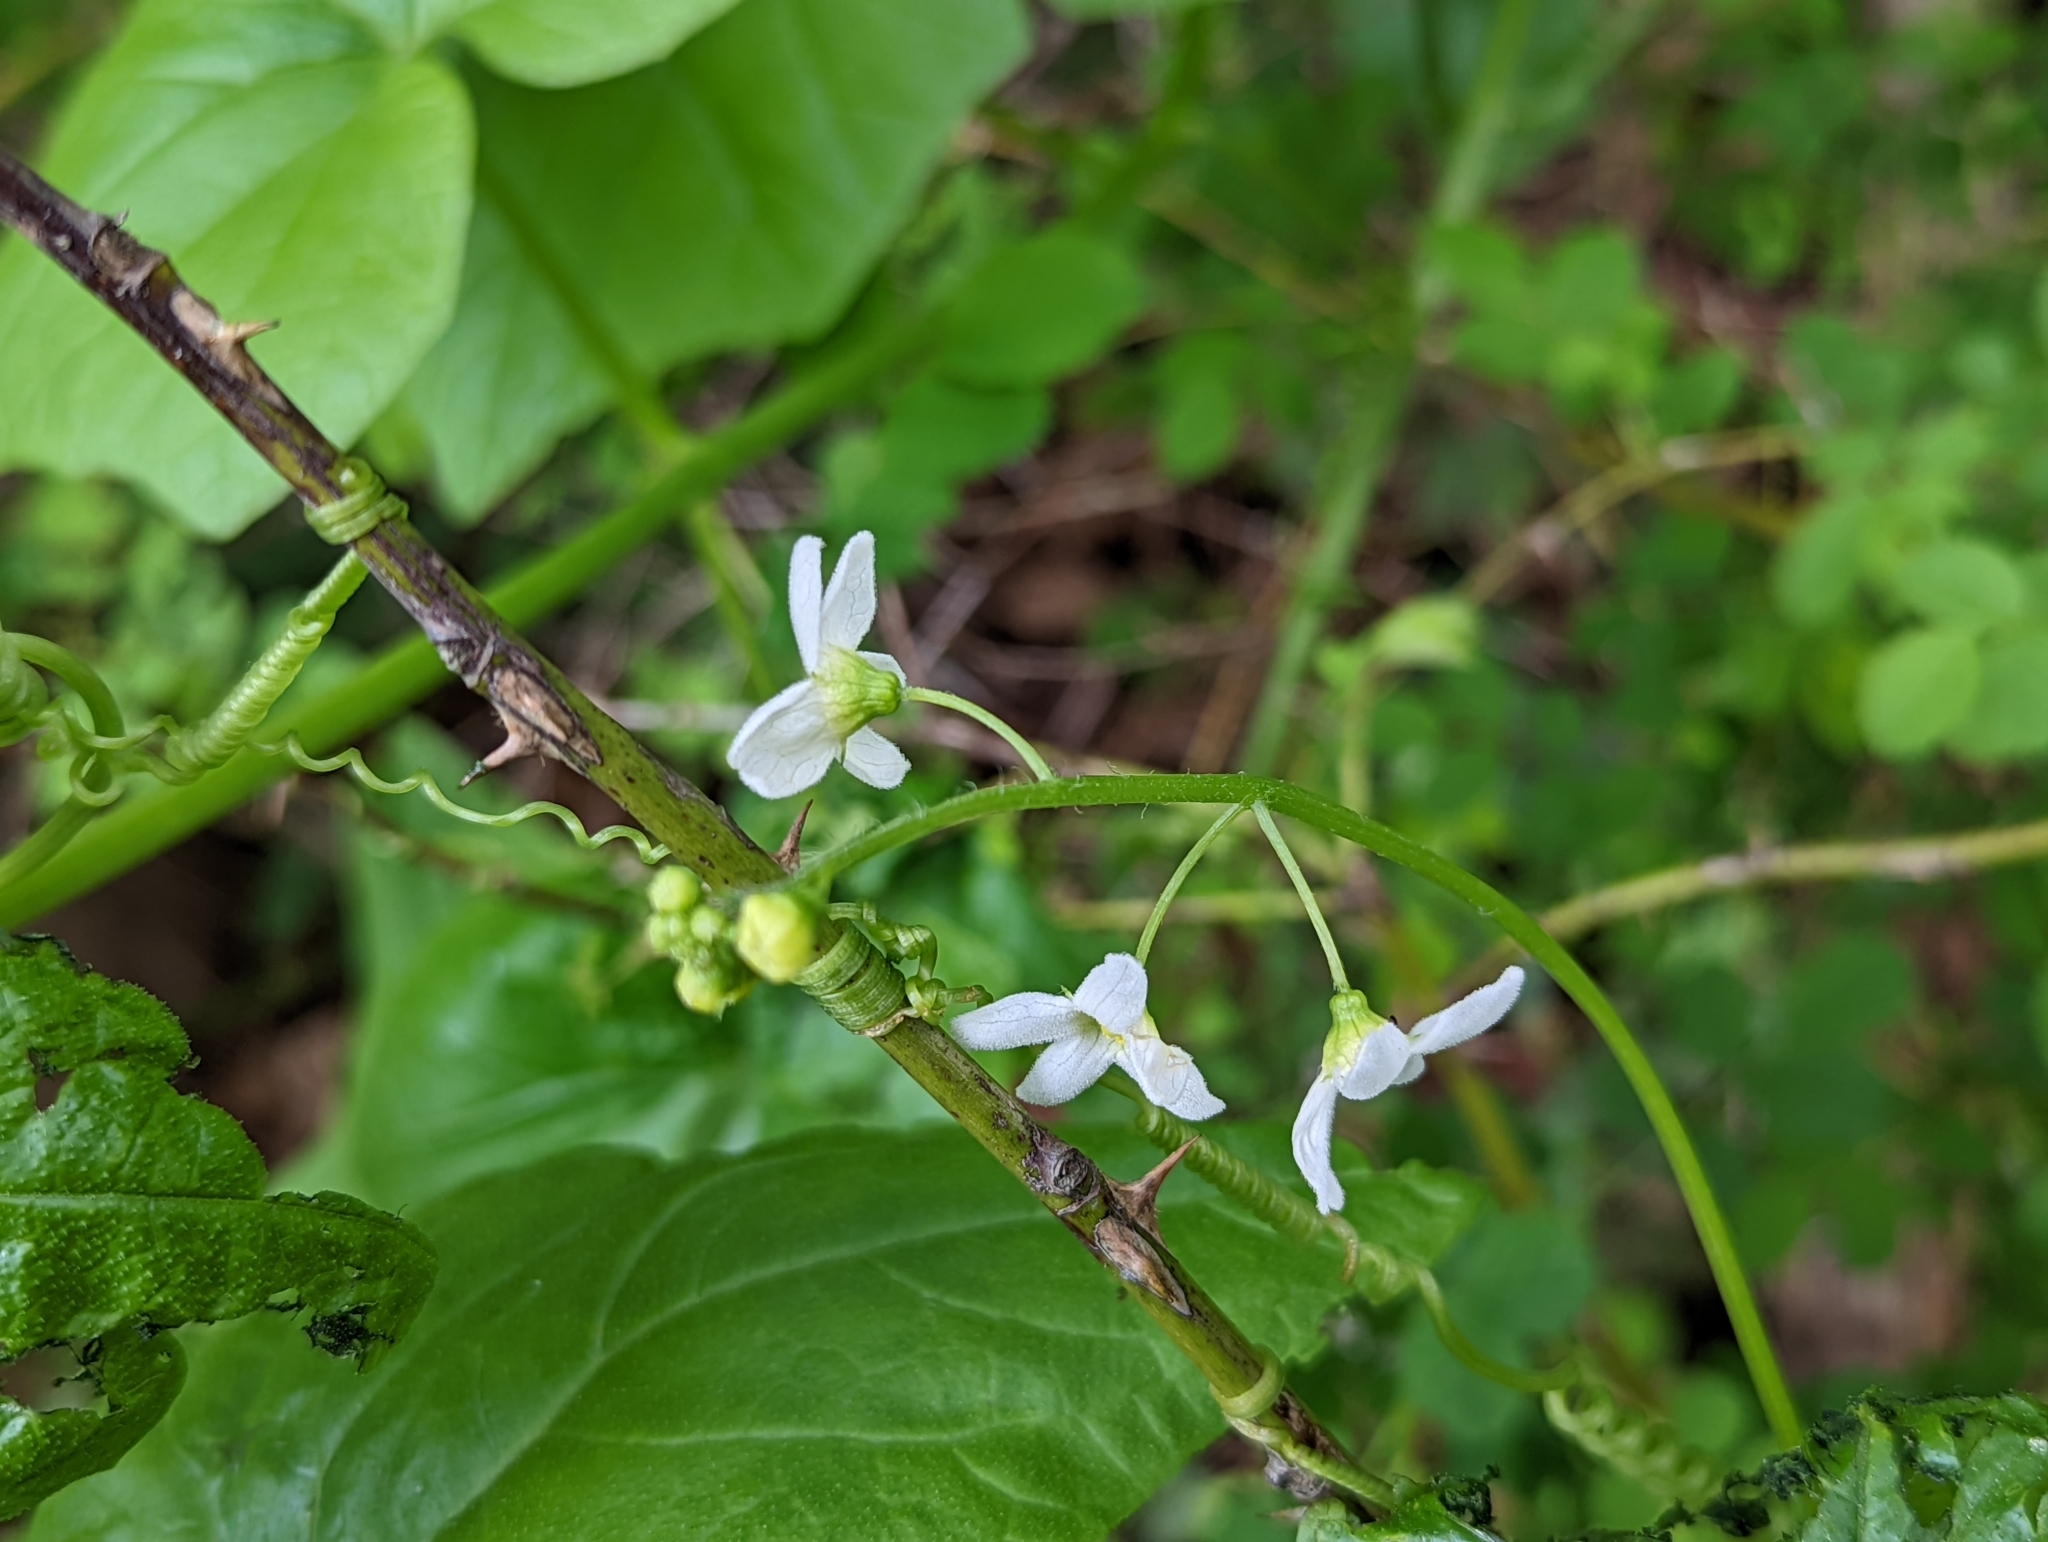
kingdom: Plantae
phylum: Tracheophyta
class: Magnoliopsida
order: Cucurbitales
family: Cucurbitaceae
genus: Marah
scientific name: Marah oregana
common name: Coastal manroot
